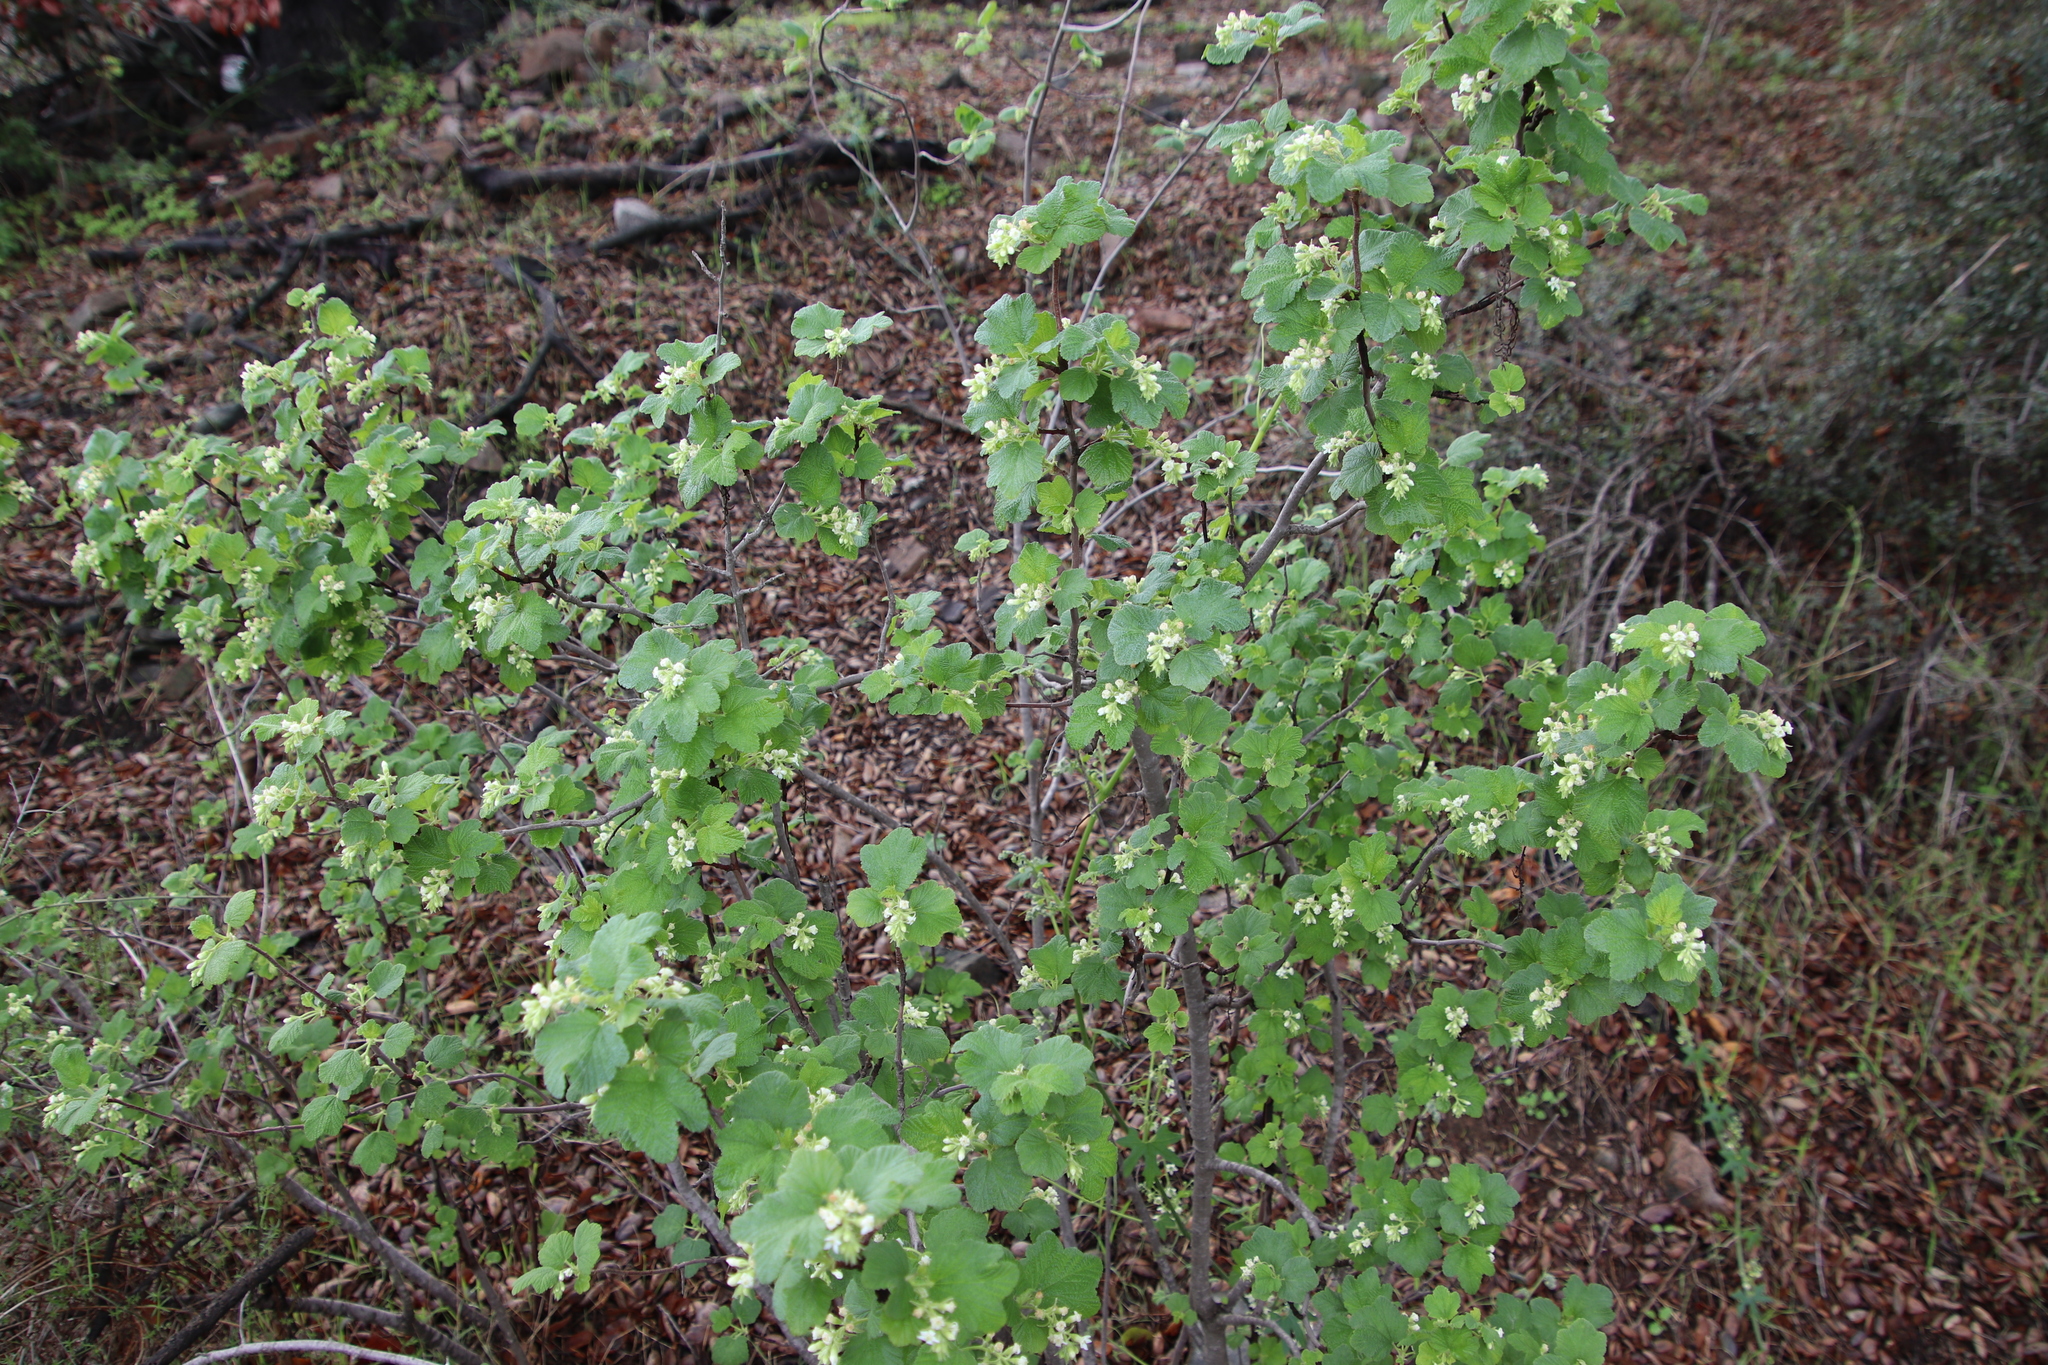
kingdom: Plantae
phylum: Tracheophyta
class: Magnoliopsida
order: Saxifragales
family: Grossulariaceae
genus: Ribes
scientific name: Ribes indecorum
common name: White-flower currant
